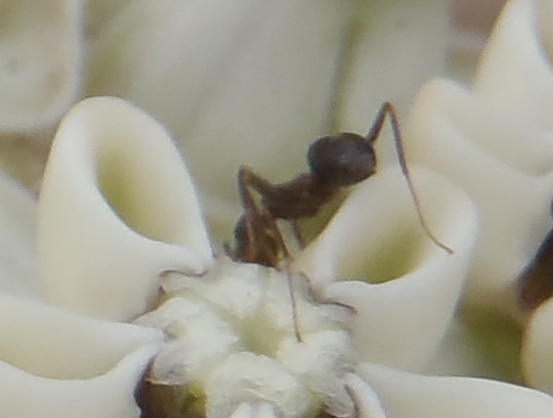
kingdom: Animalia
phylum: Arthropoda
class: Insecta
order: Hymenoptera
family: Formicidae
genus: Anoplolepis
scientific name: Anoplolepis steingroeveri
